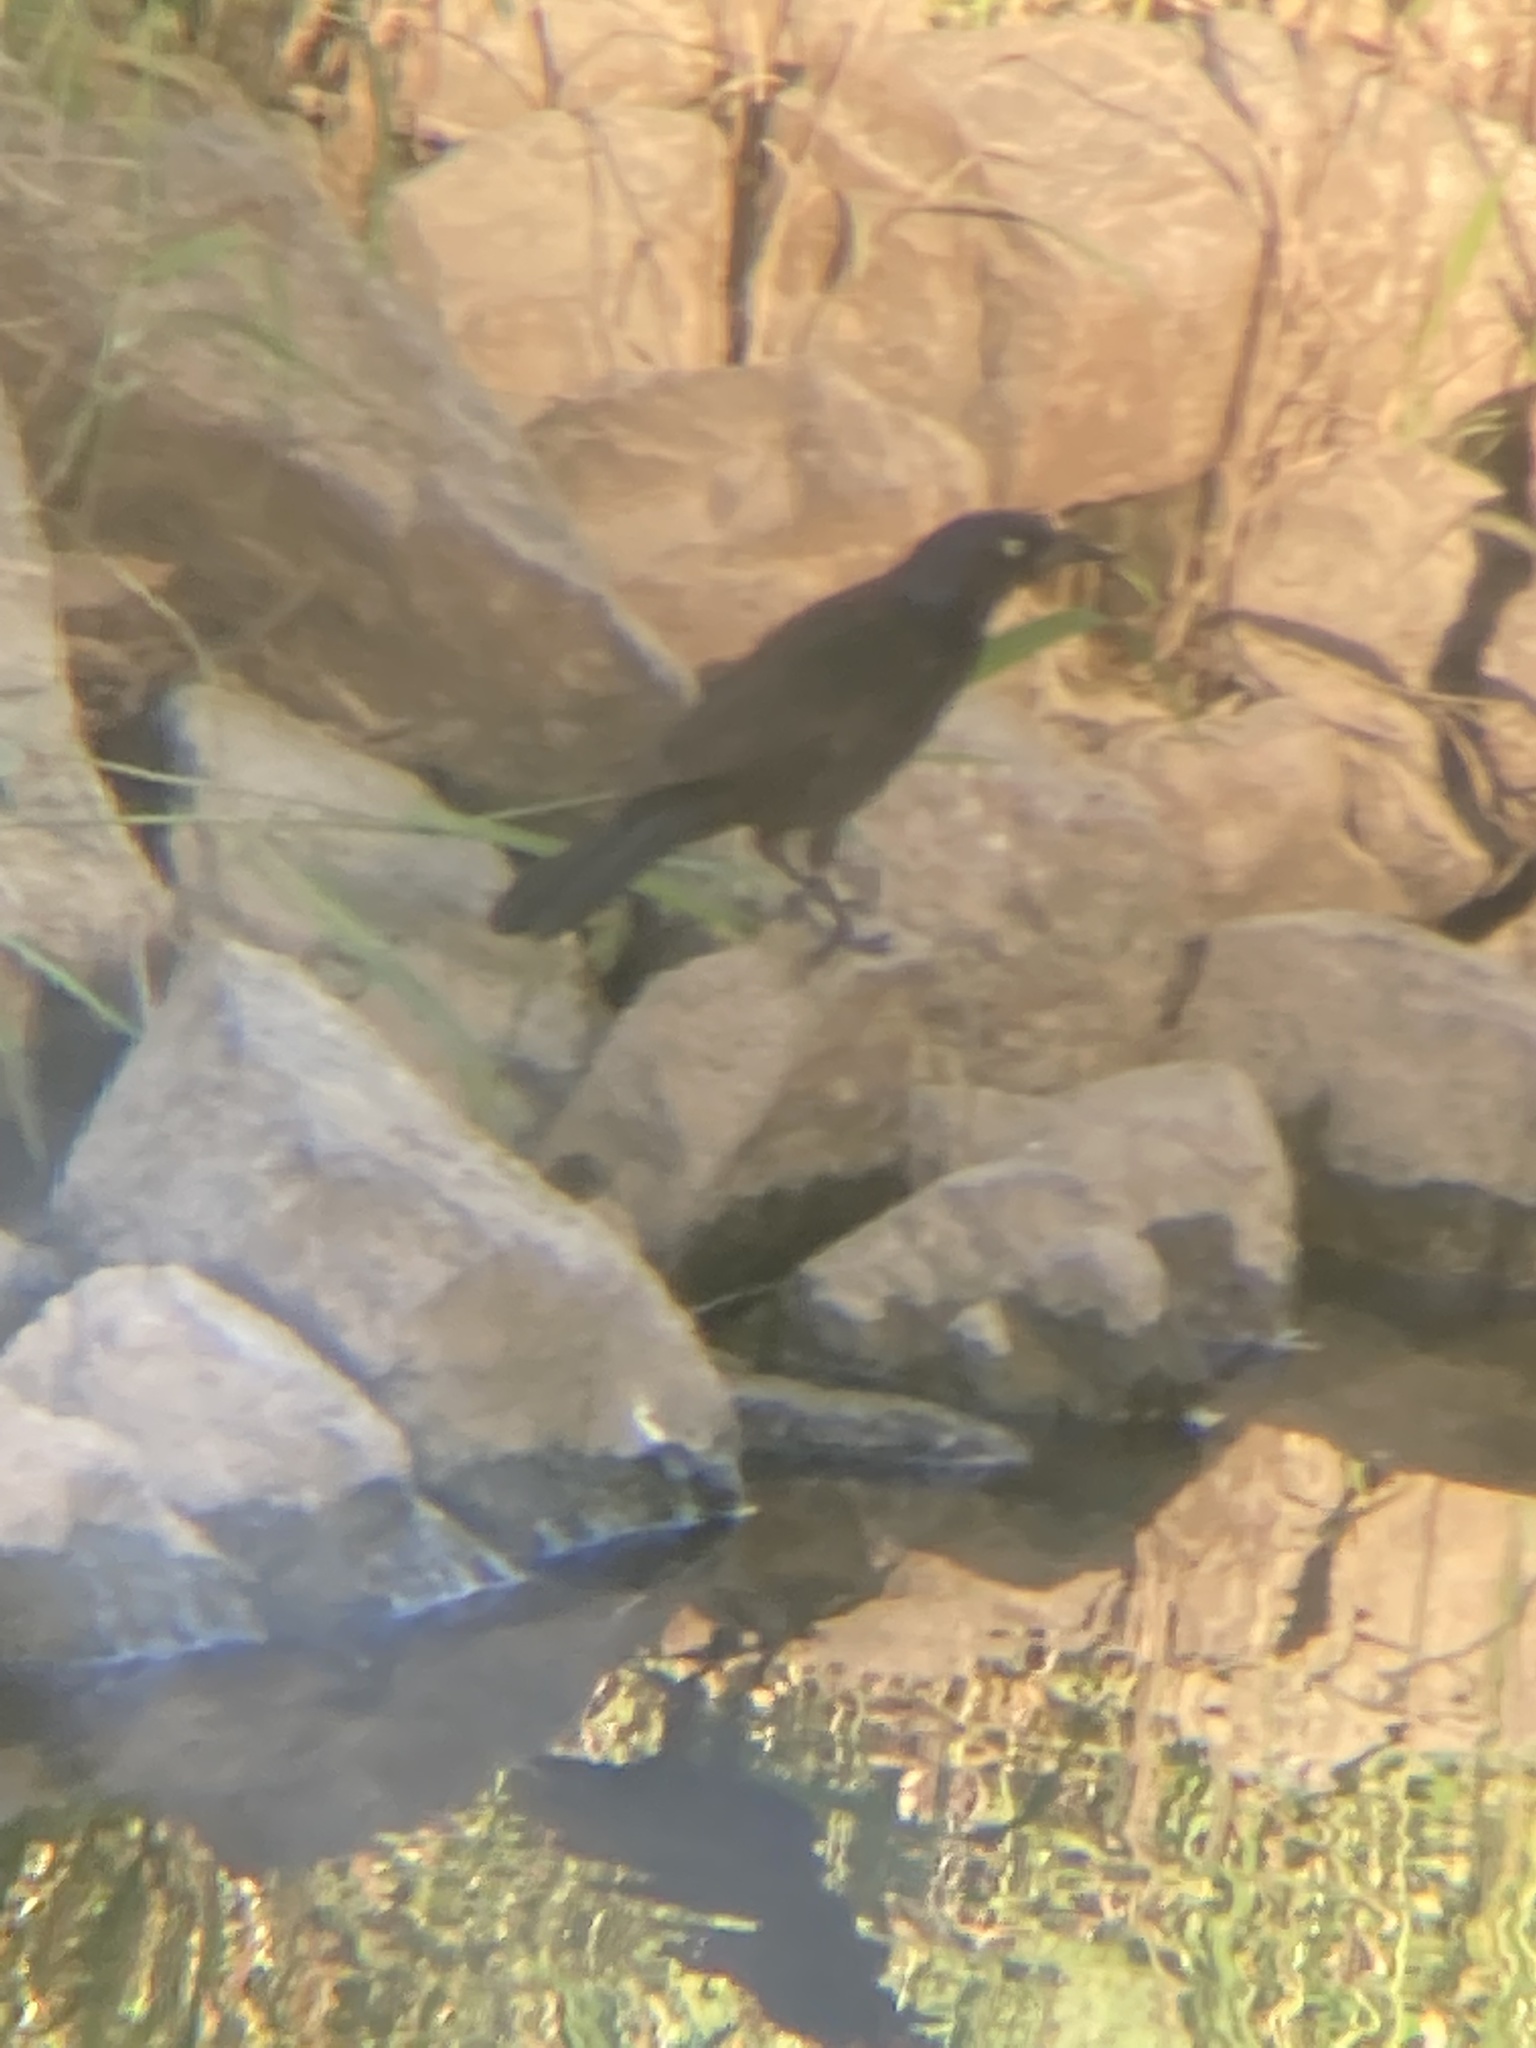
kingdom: Animalia
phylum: Chordata
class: Aves
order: Passeriformes
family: Icteridae
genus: Quiscalus
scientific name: Quiscalus quiscula
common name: Common grackle
